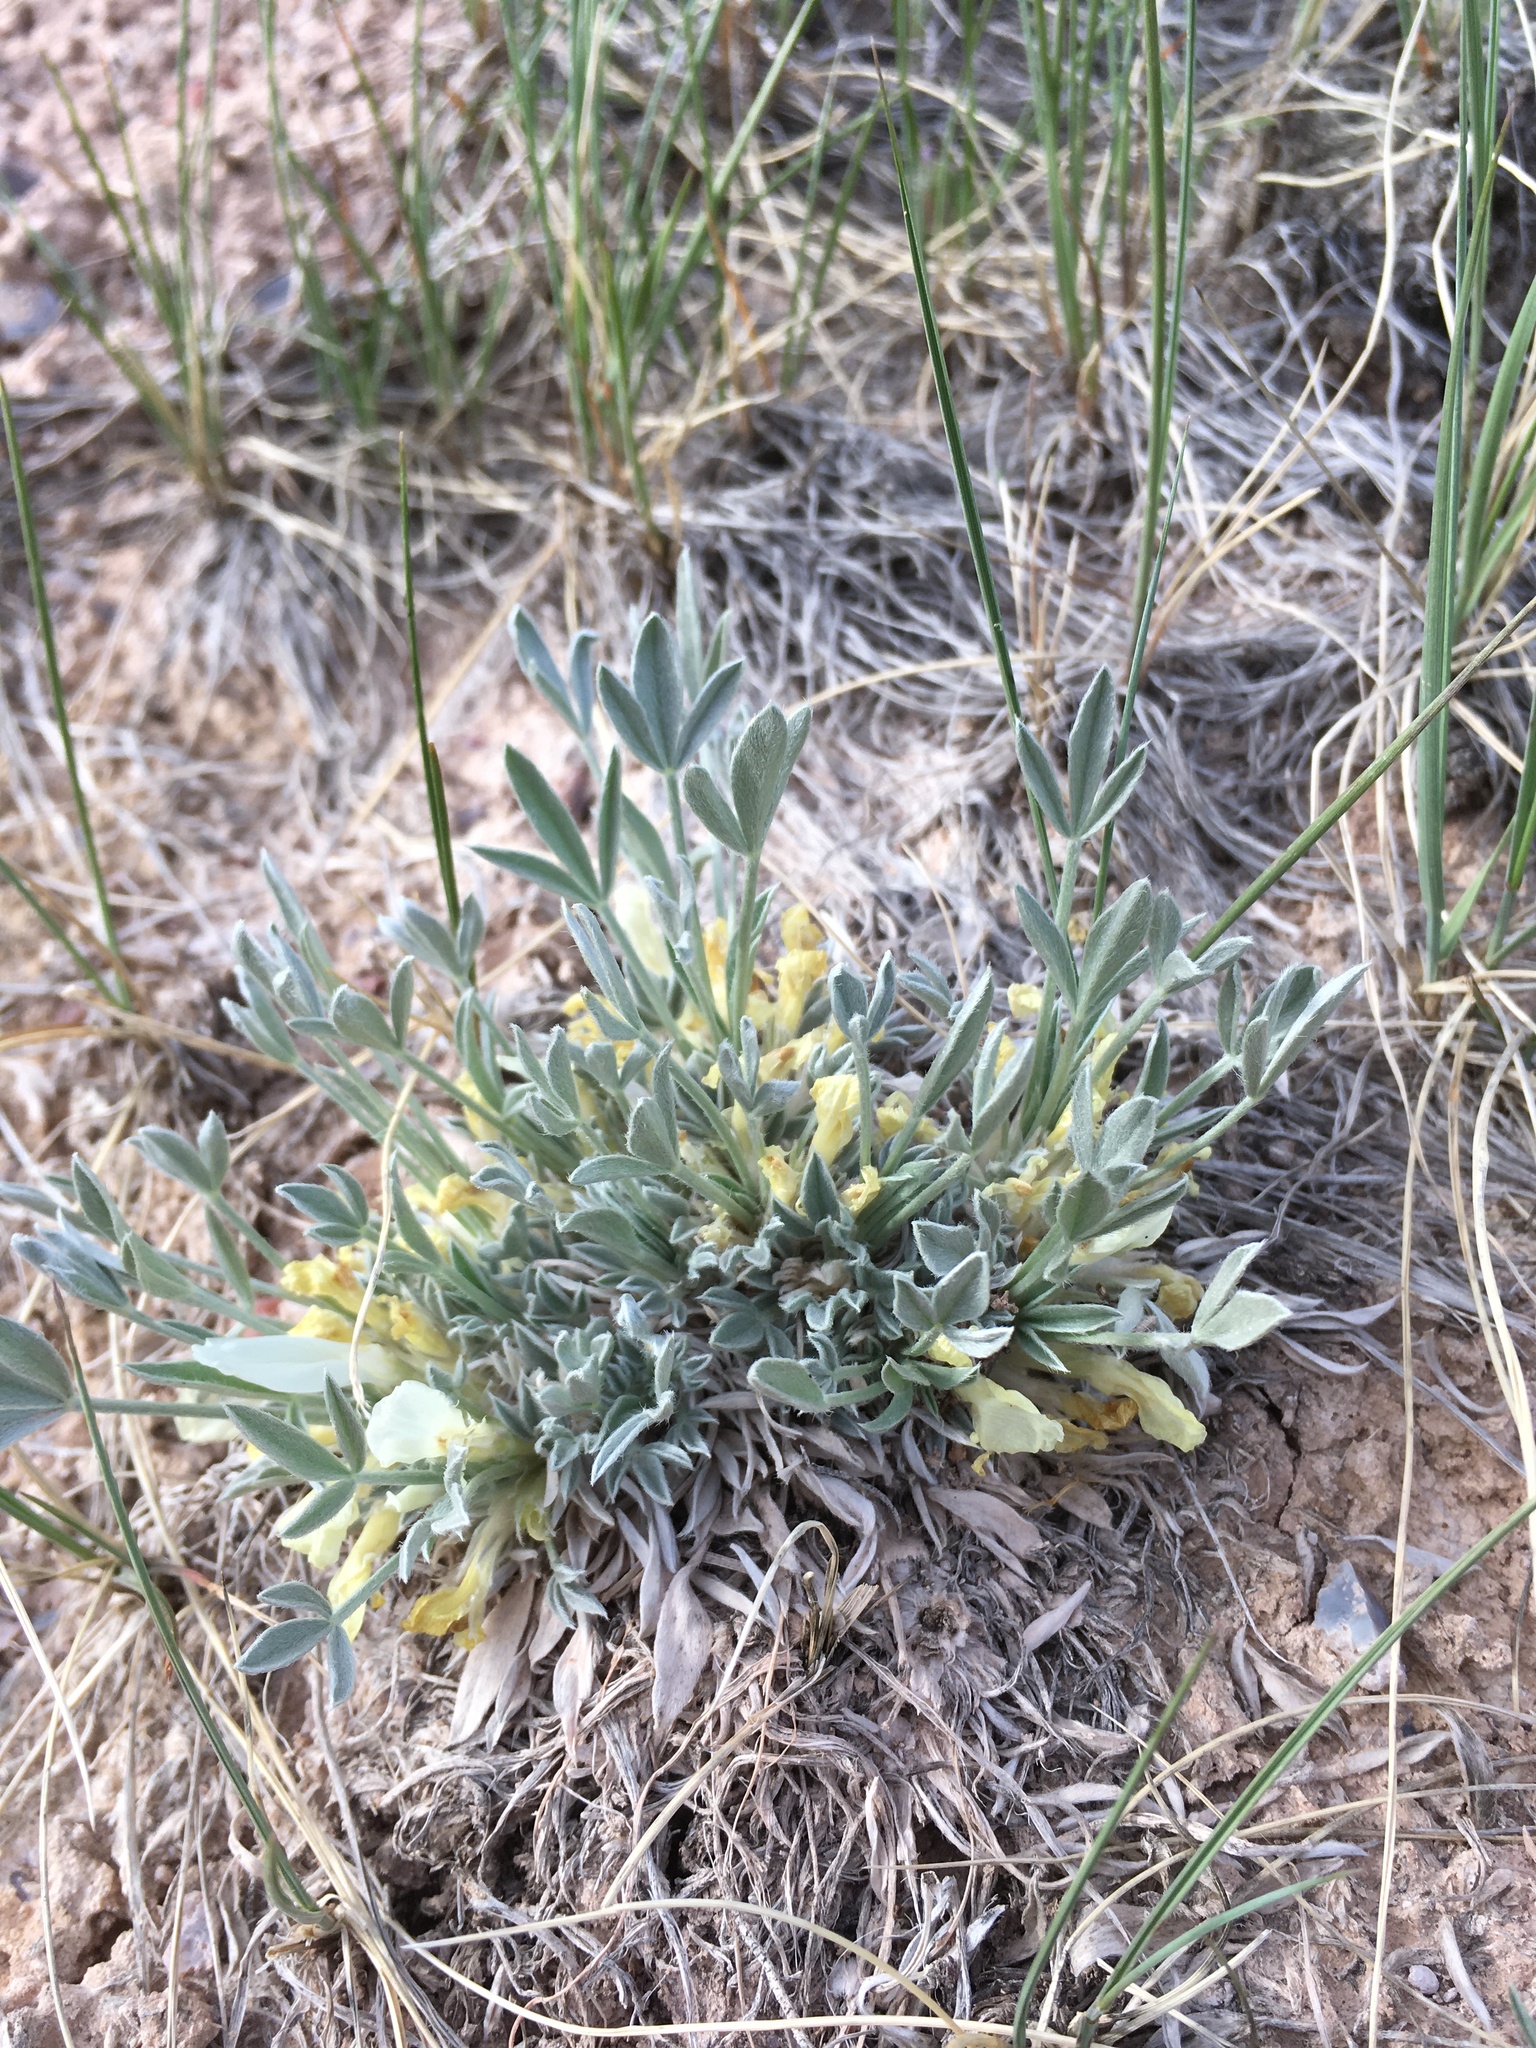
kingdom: Plantae
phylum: Tracheophyta
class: Magnoliopsida
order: Fabales
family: Fabaceae
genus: Astragalus
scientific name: Astragalus gilviflorus
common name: Cushion milk-vetch
